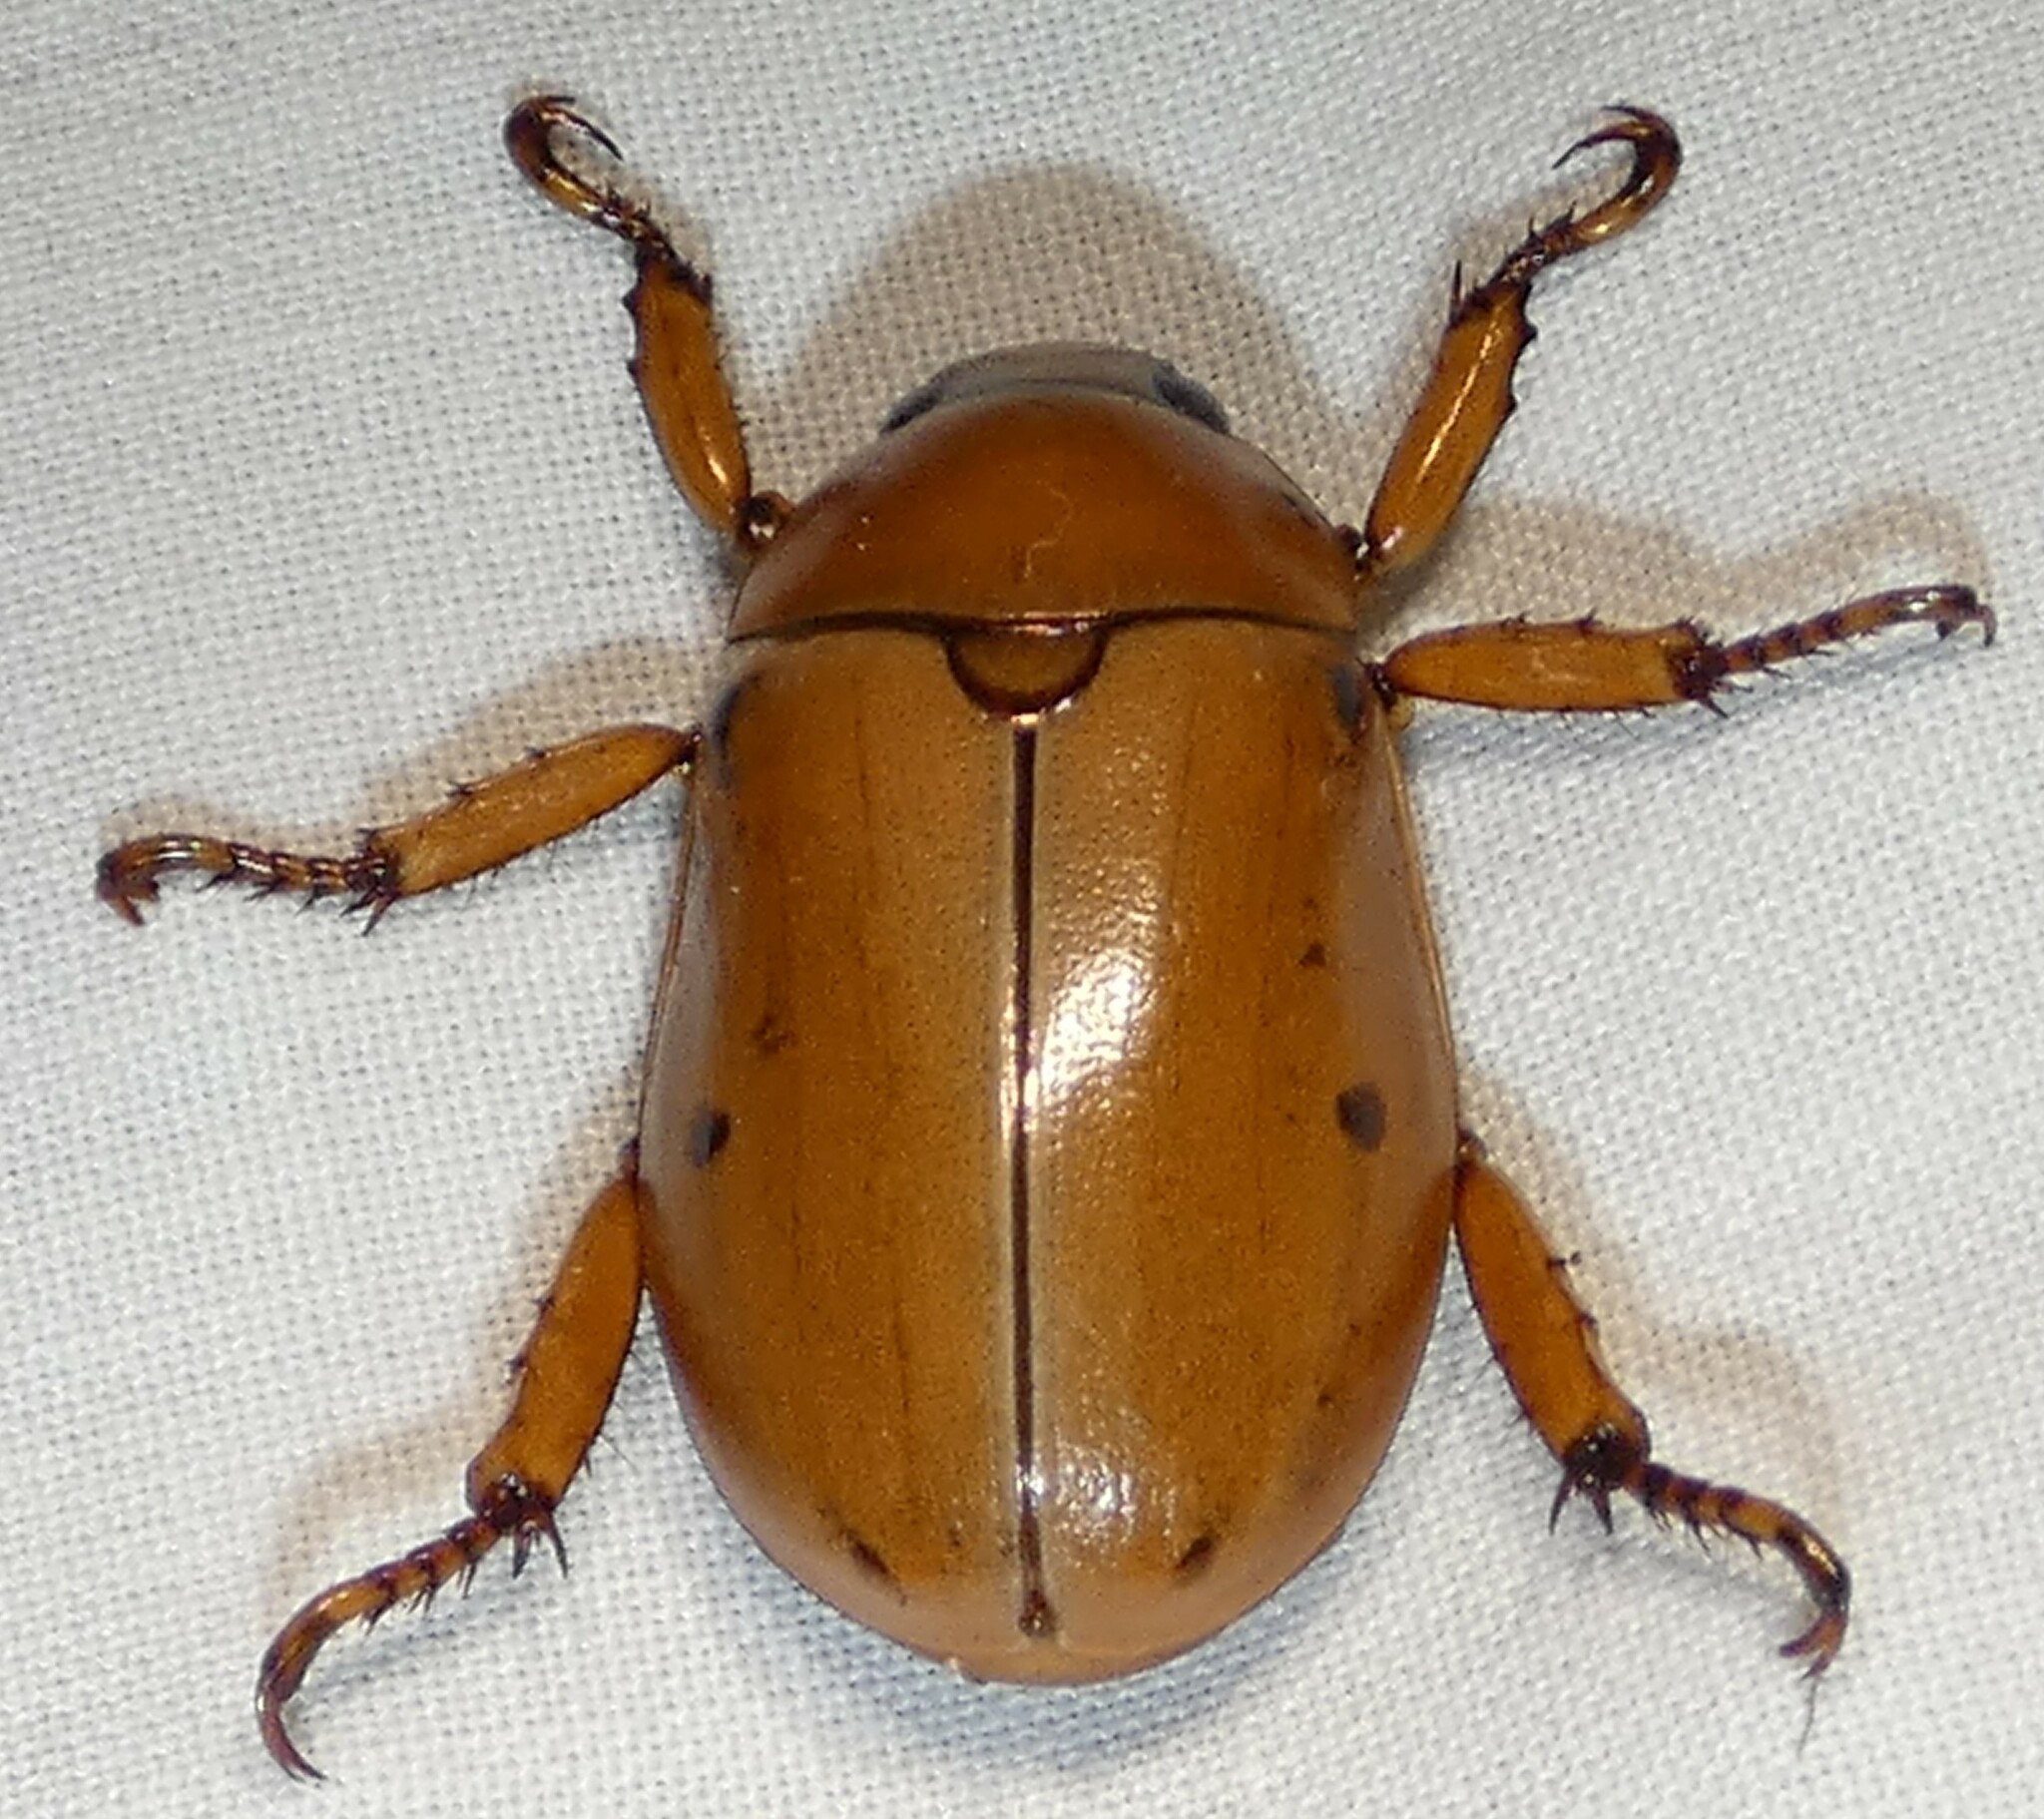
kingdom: Animalia
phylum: Arthropoda
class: Insecta
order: Coleoptera
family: Scarabaeidae
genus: Pelidnota
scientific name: Pelidnota punctata
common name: Grapevine beetle
